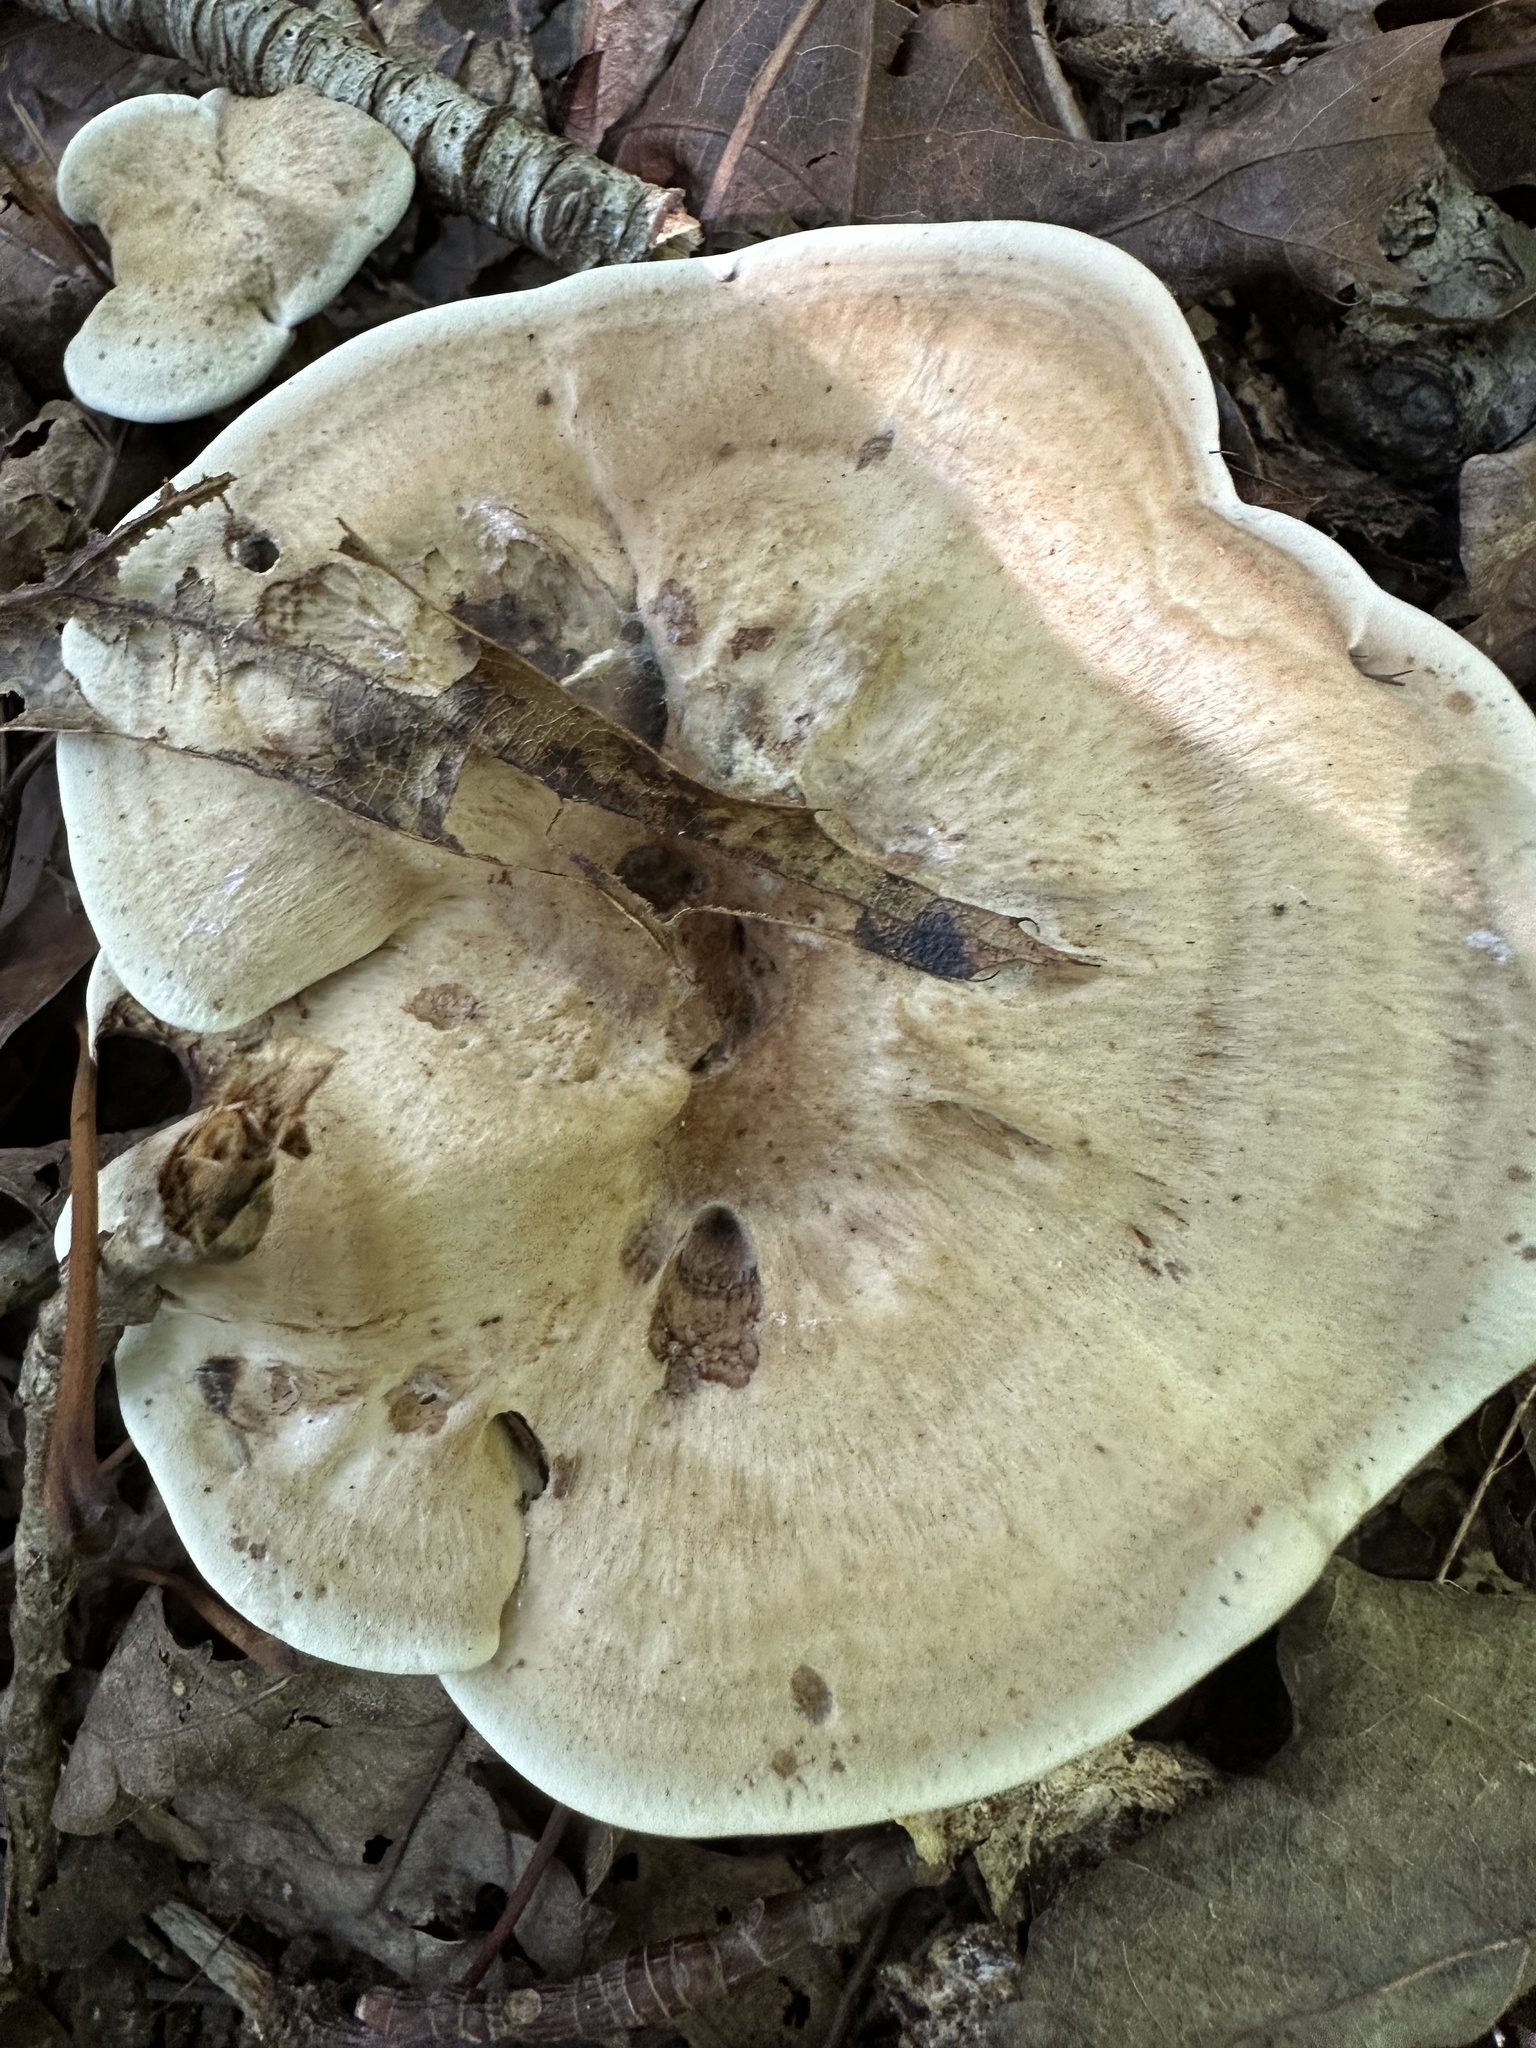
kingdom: Fungi
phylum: Basidiomycota
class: Agaricomycetes
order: Thelephorales
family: Bankeraceae
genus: Hydnellum
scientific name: Hydnellum spongiosipes
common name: Velvet tooth
